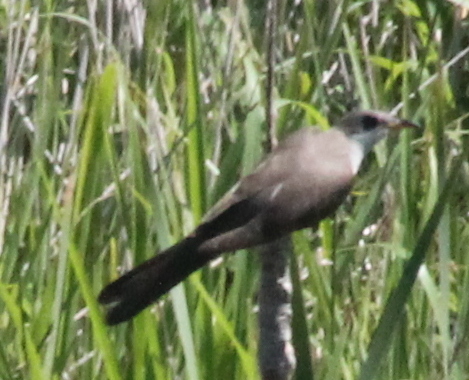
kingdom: Animalia
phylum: Chordata
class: Aves
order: Cuculiformes
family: Cuculidae
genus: Coccyzus
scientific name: Coccyzus americanus
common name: Yellow-billed cuckoo
